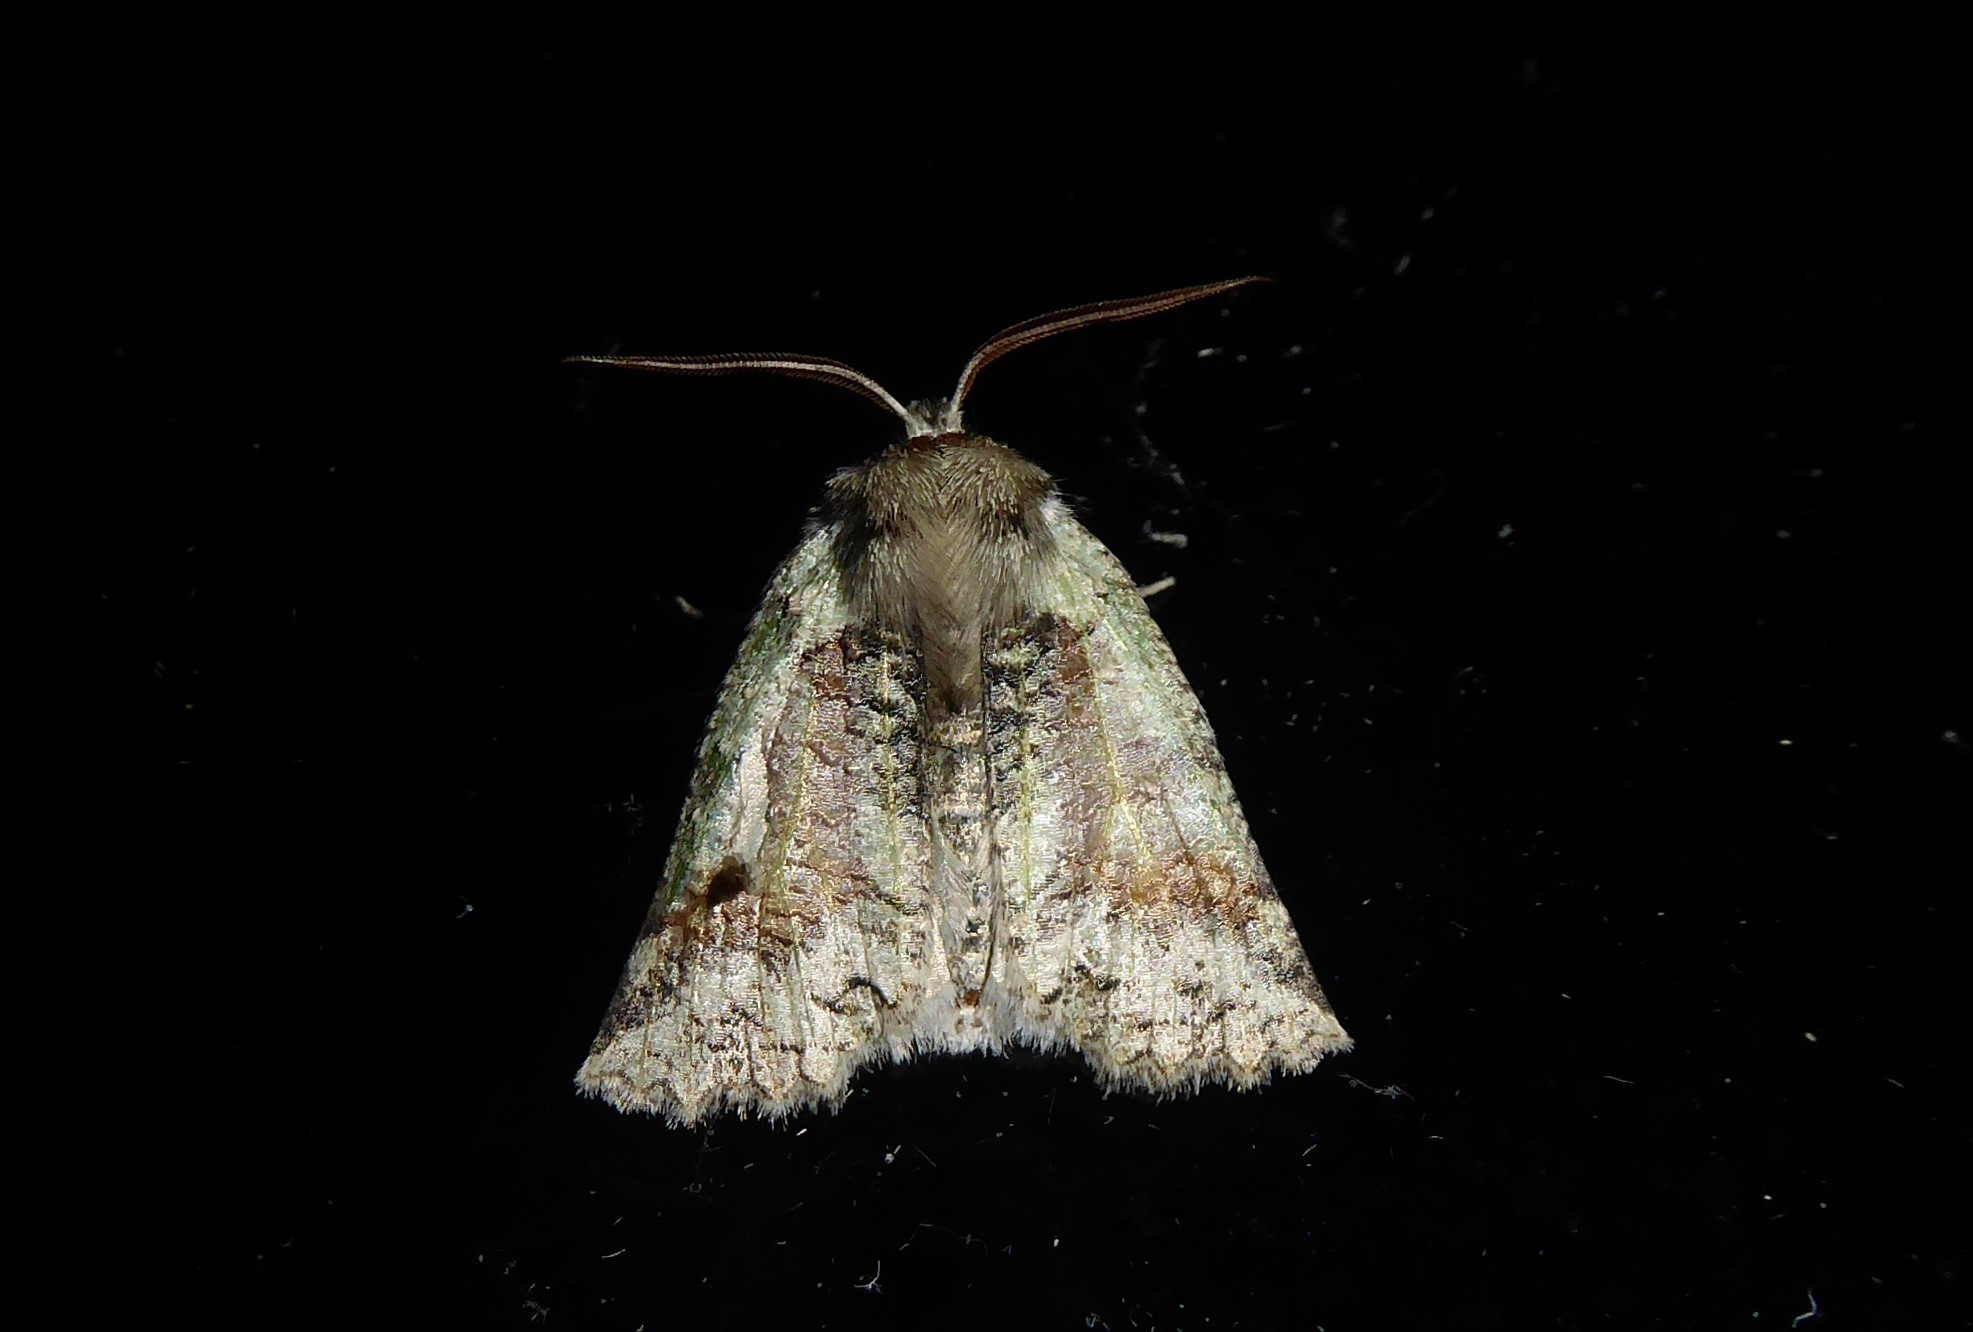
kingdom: Animalia
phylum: Arthropoda
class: Insecta
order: Lepidoptera
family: Geometridae
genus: Declana
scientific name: Declana floccosa
